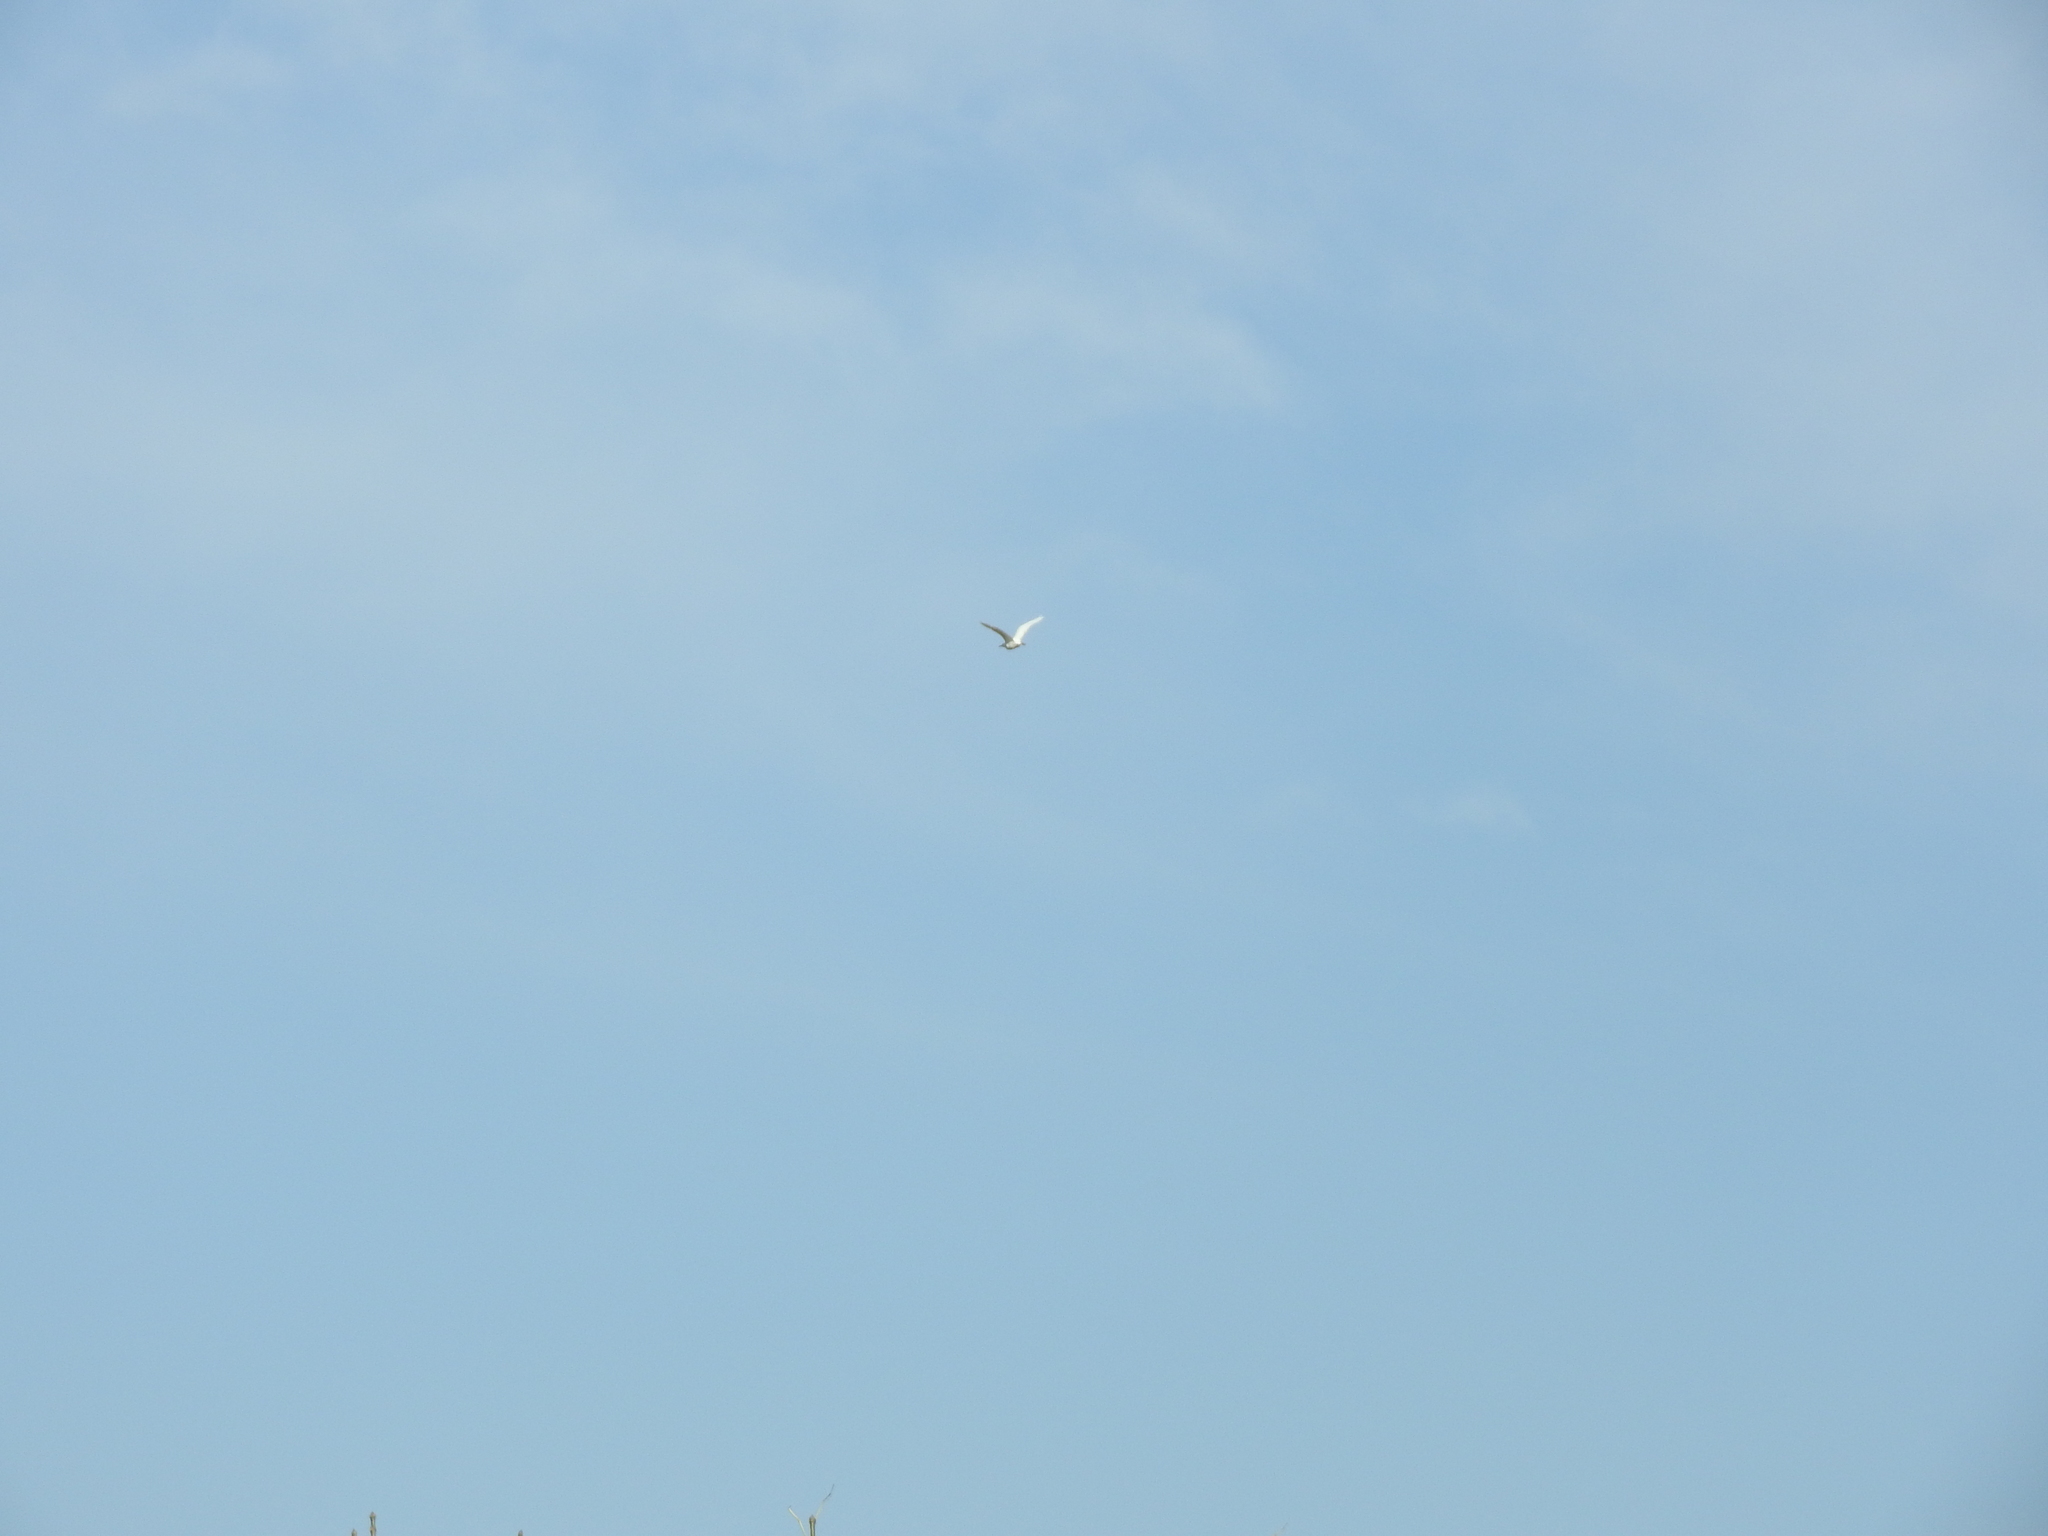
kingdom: Animalia
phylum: Chordata
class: Aves
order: Pelecaniformes
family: Ardeidae
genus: Bubulcus
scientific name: Bubulcus ibis
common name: Cattle egret
